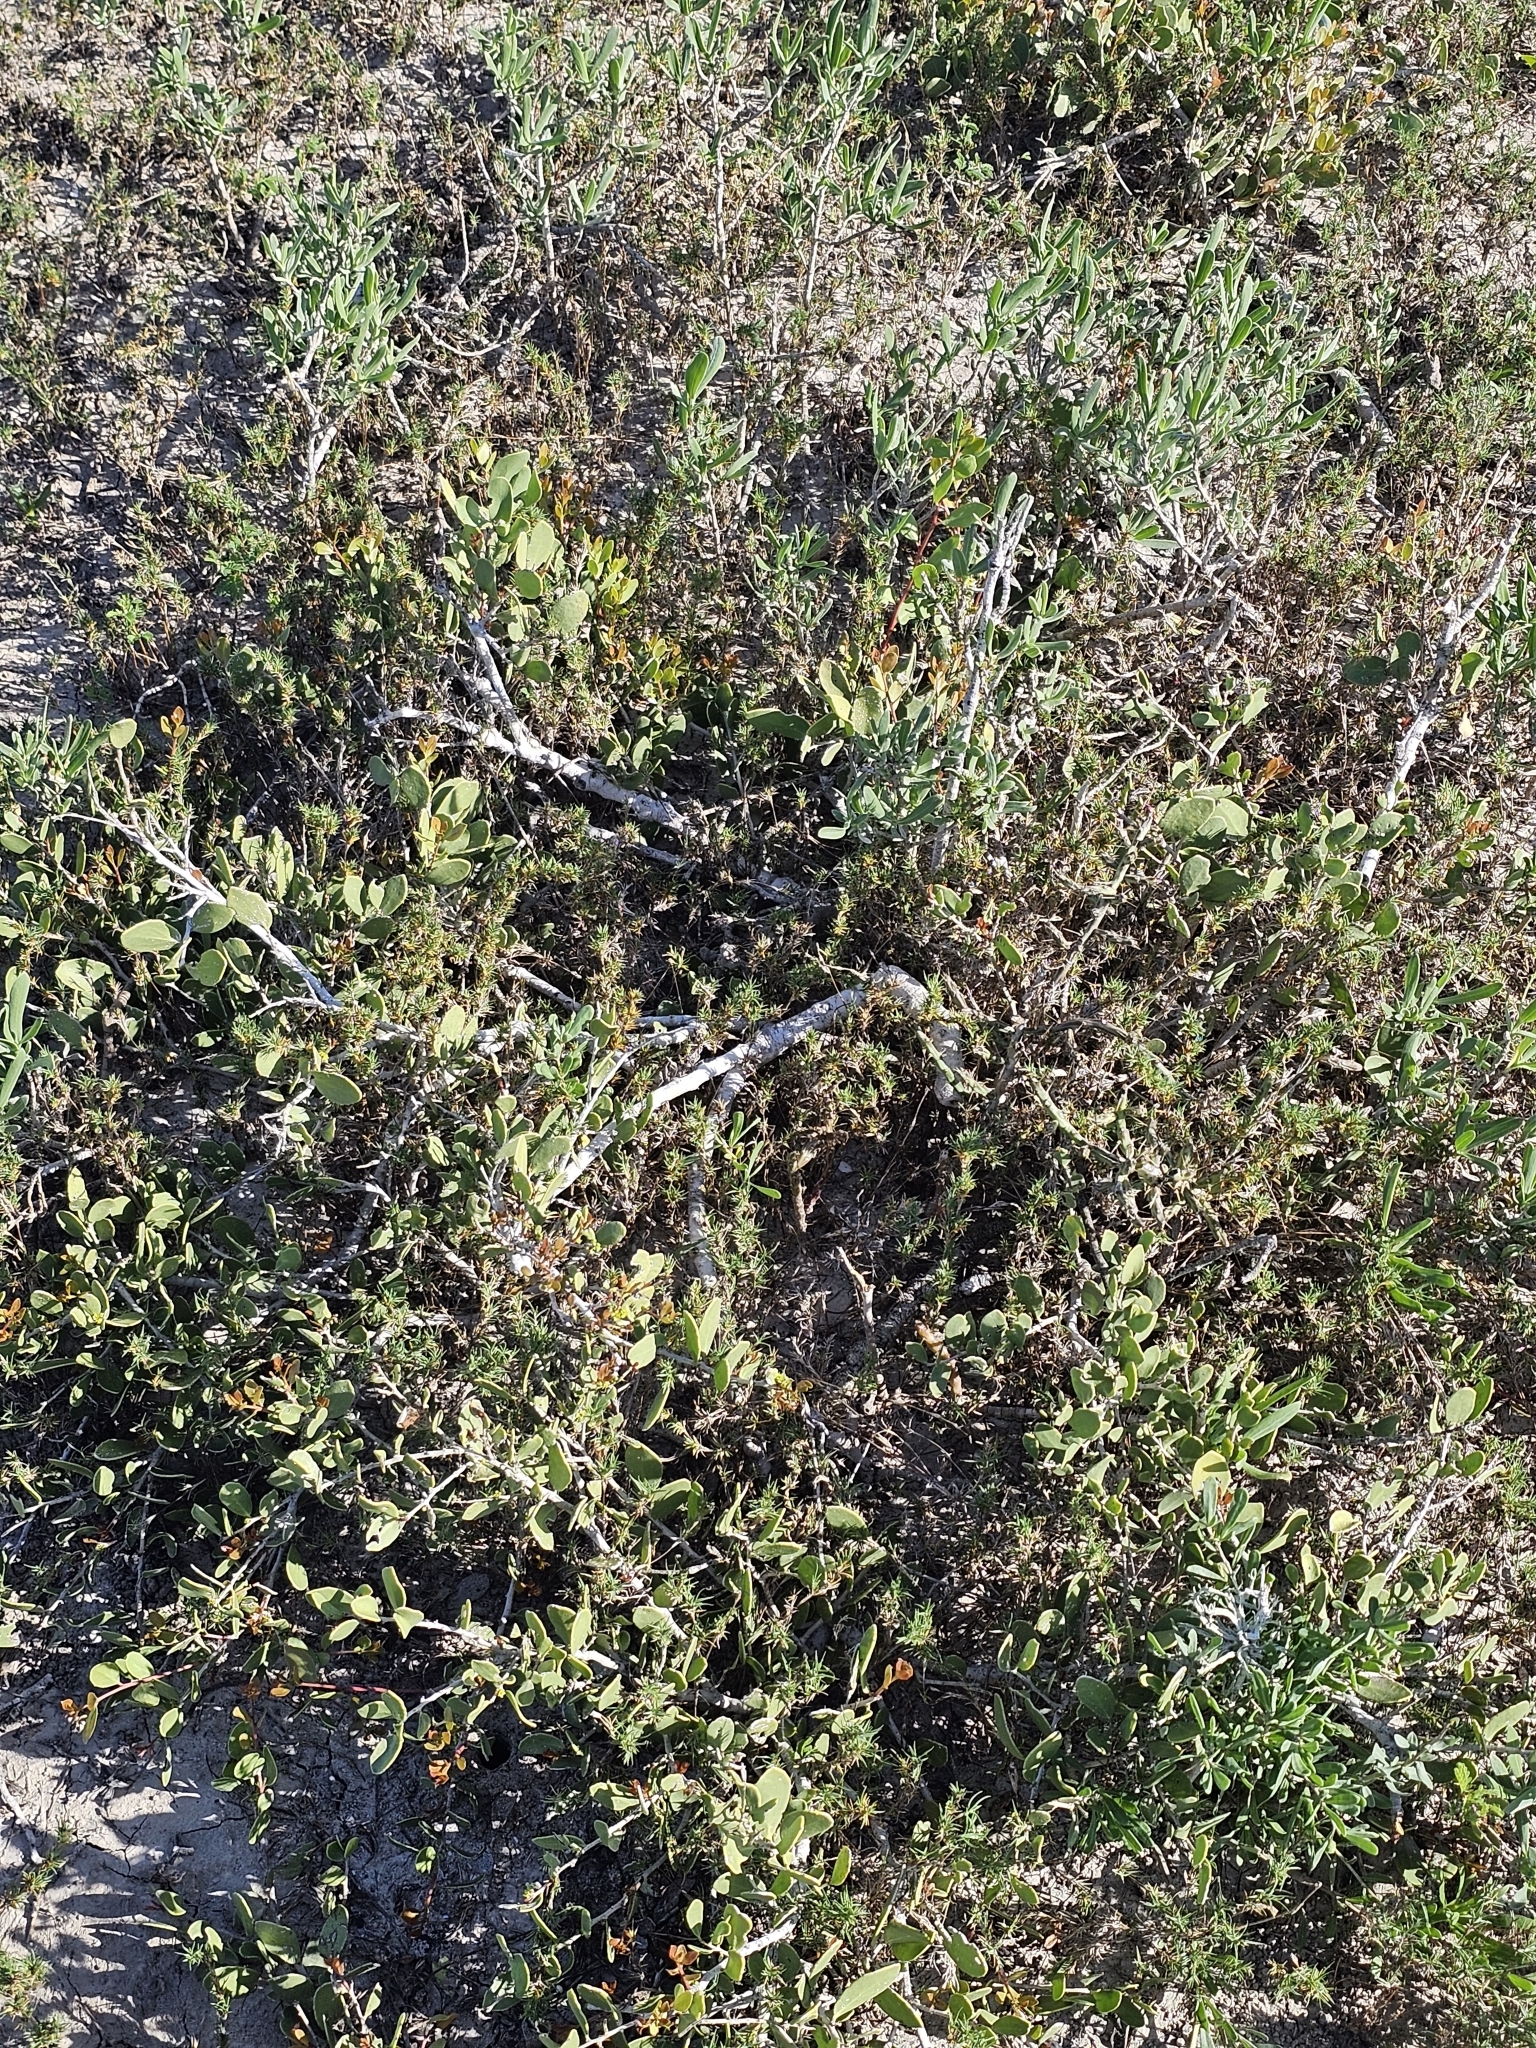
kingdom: Plantae
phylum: Tracheophyta
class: Magnoliopsida
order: Celastrales
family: Celastraceae
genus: Tricerma
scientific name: Tricerma phyllanthoides
